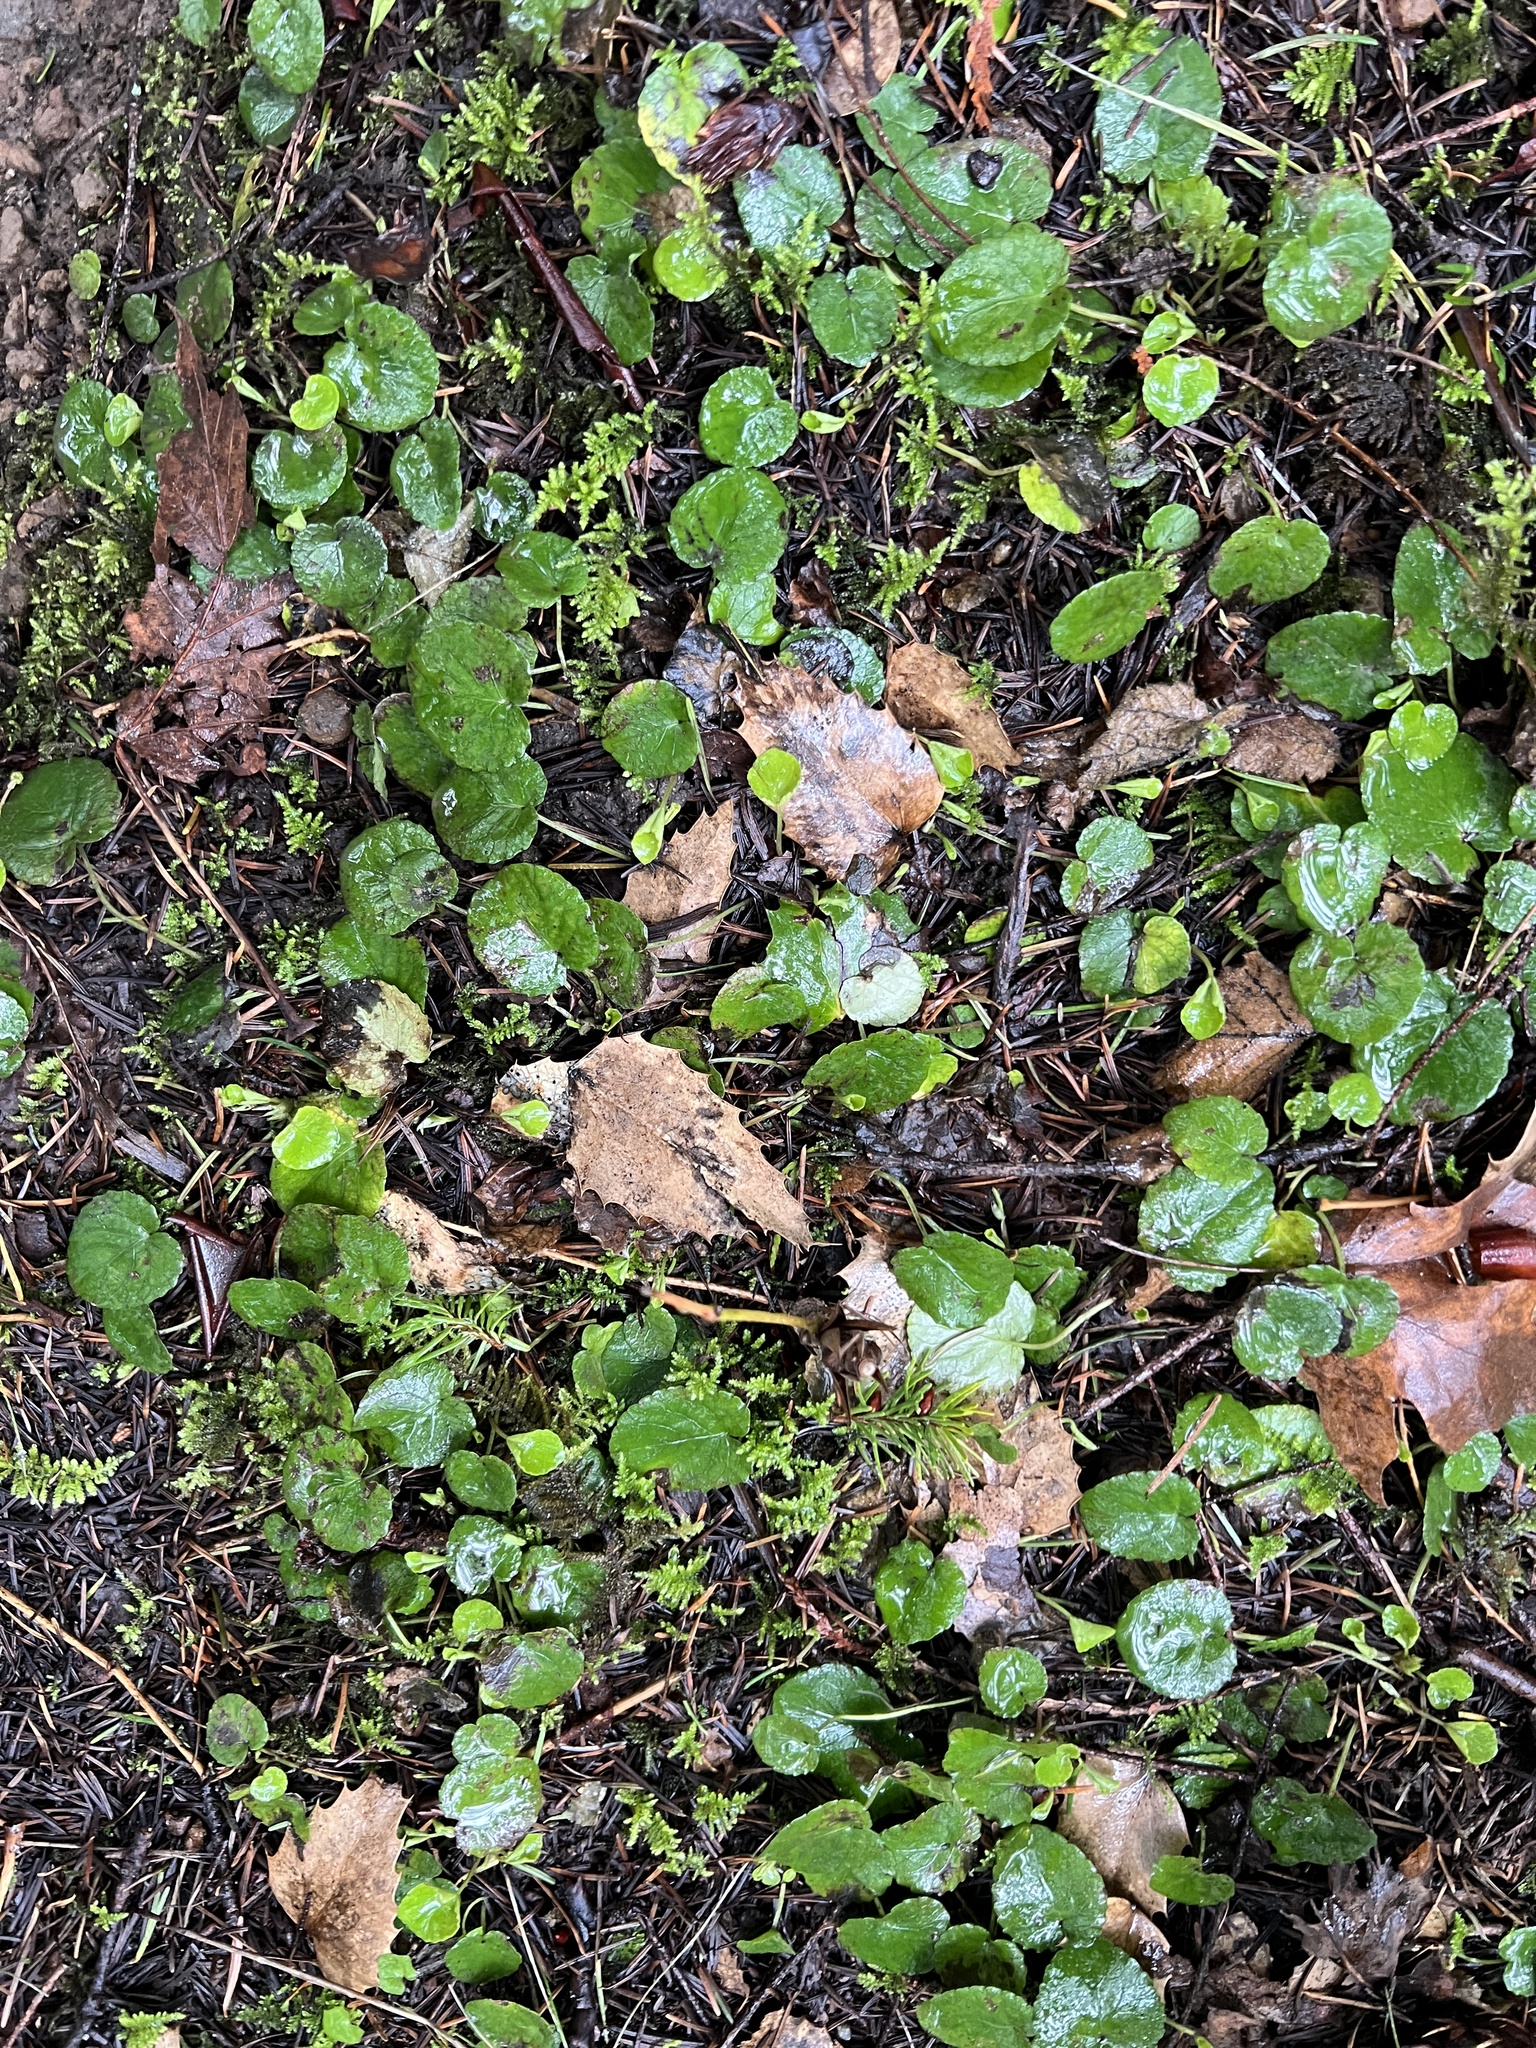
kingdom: Plantae
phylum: Tracheophyta
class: Magnoliopsida
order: Malpighiales
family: Violaceae
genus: Viola
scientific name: Viola sempervirens
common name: Evergreen violet
